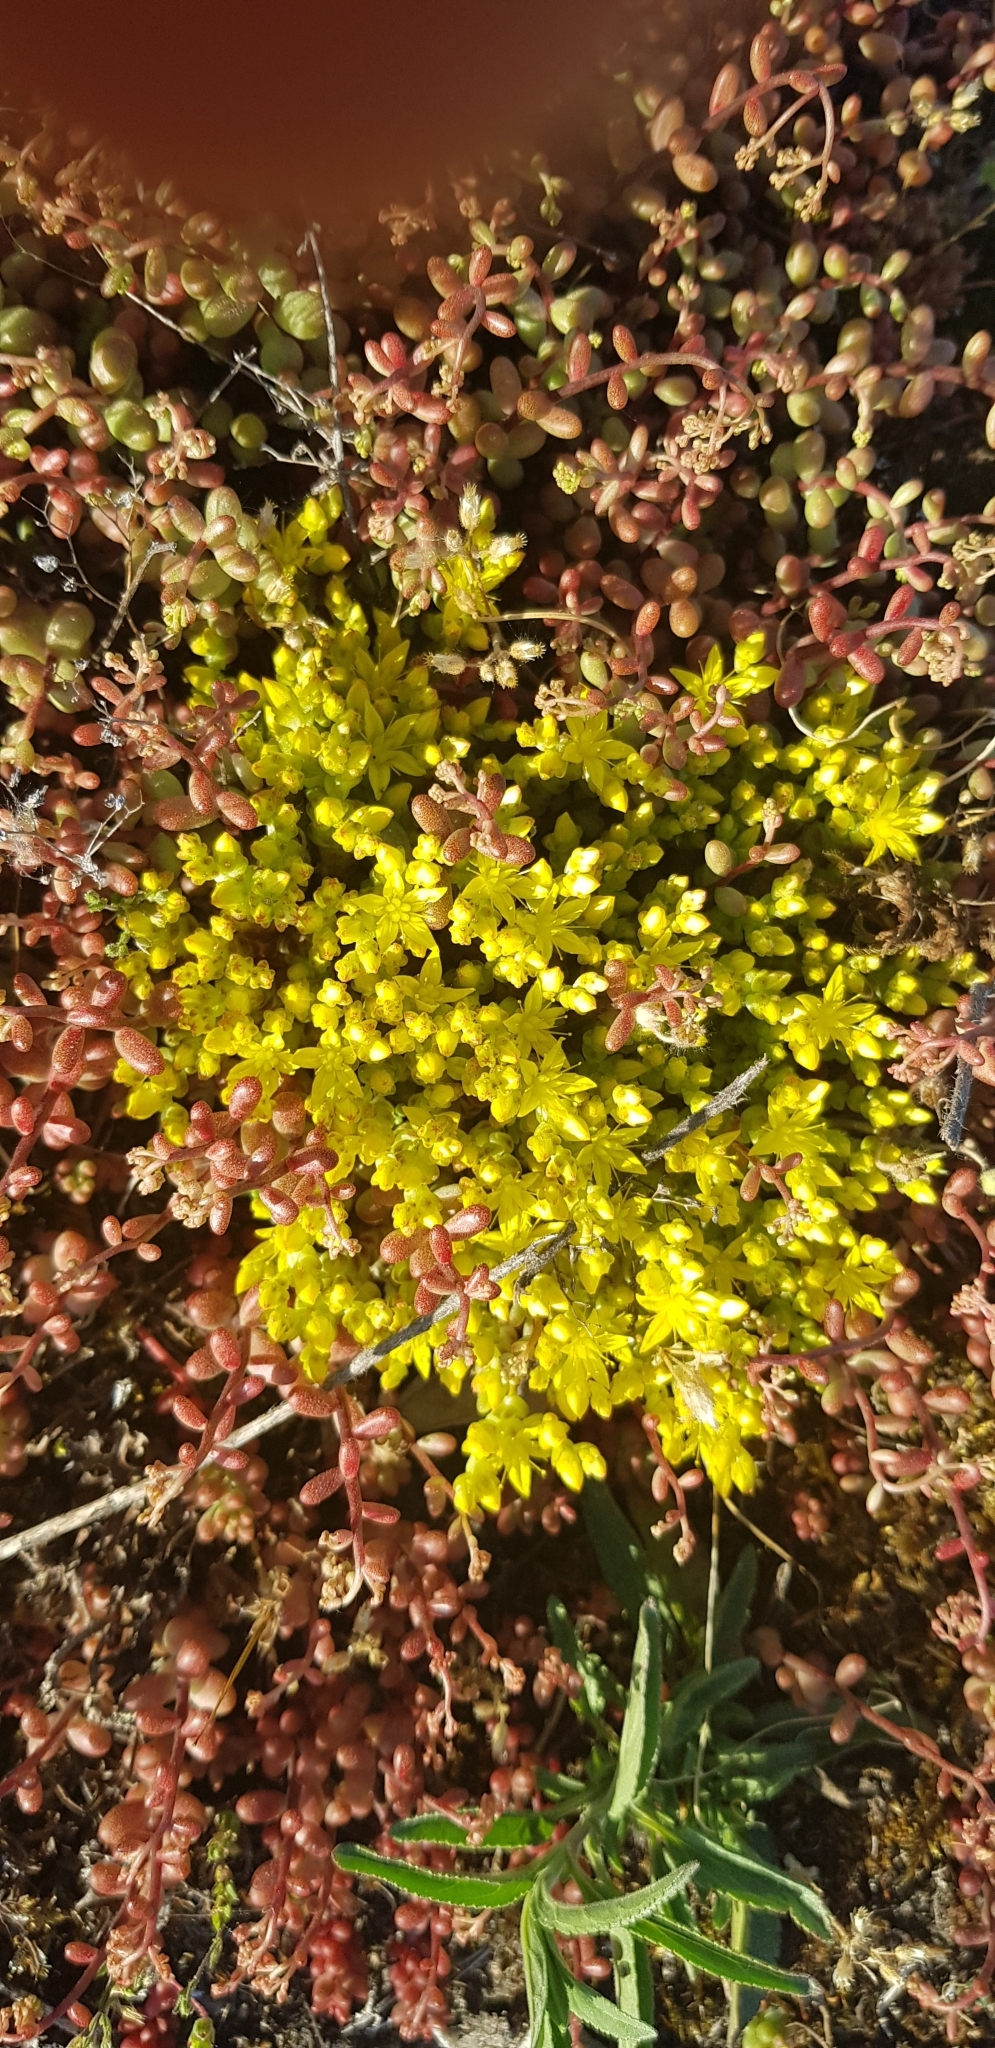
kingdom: Plantae
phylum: Tracheophyta
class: Magnoliopsida
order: Saxifragales
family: Crassulaceae
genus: Sedum
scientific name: Sedum acre
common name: Biting stonecrop
